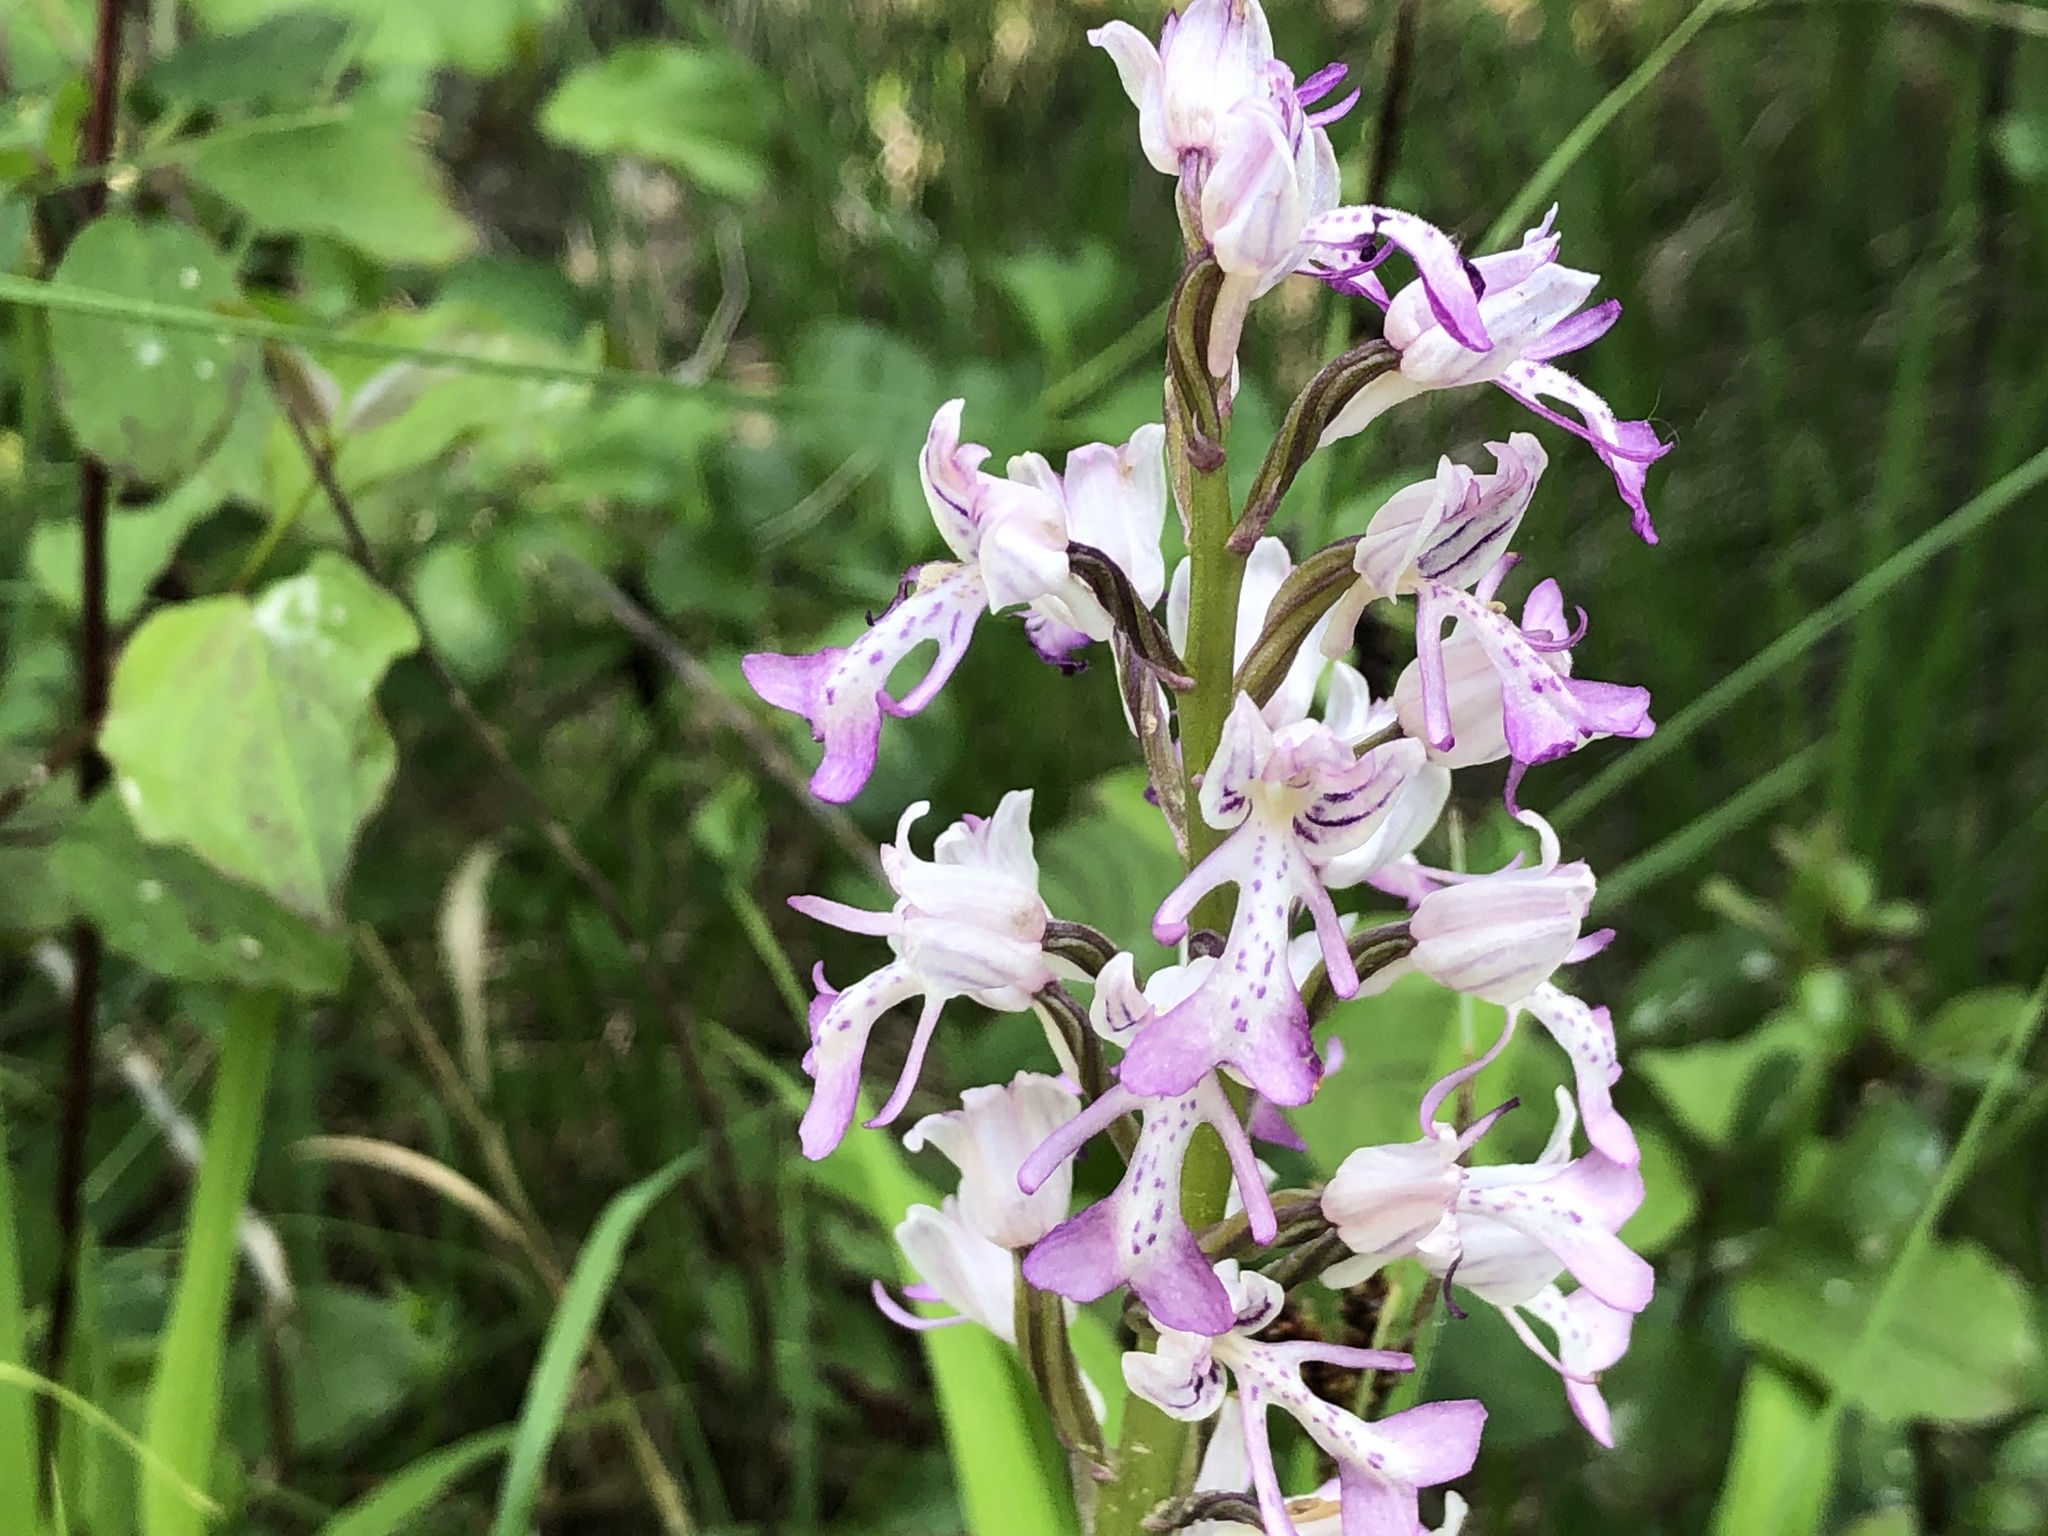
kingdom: Plantae
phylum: Tracheophyta
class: Liliopsida
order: Asparagales
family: Orchidaceae
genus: Orchis
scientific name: Orchis militaris
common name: Military orchid
